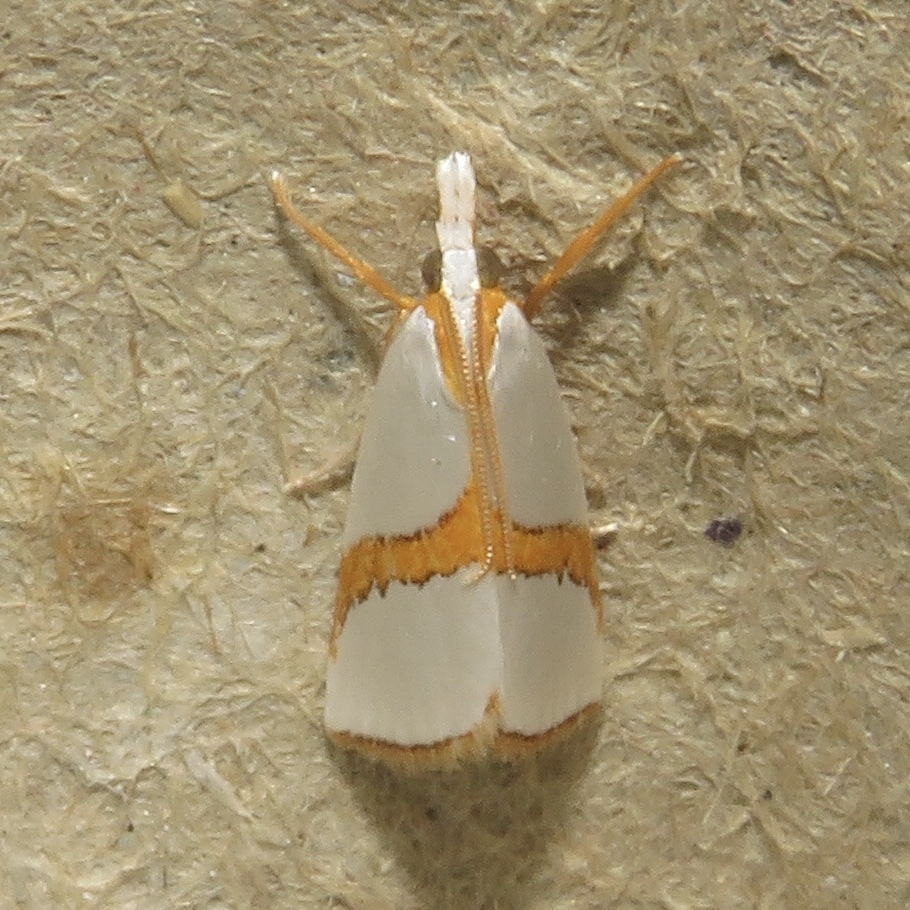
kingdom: Animalia
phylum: Arthropoda
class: Insecta
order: Lepidoptera
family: Crambidae
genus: Vaxi
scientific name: Vaxi critica
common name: Straight-lined vaxi moth
